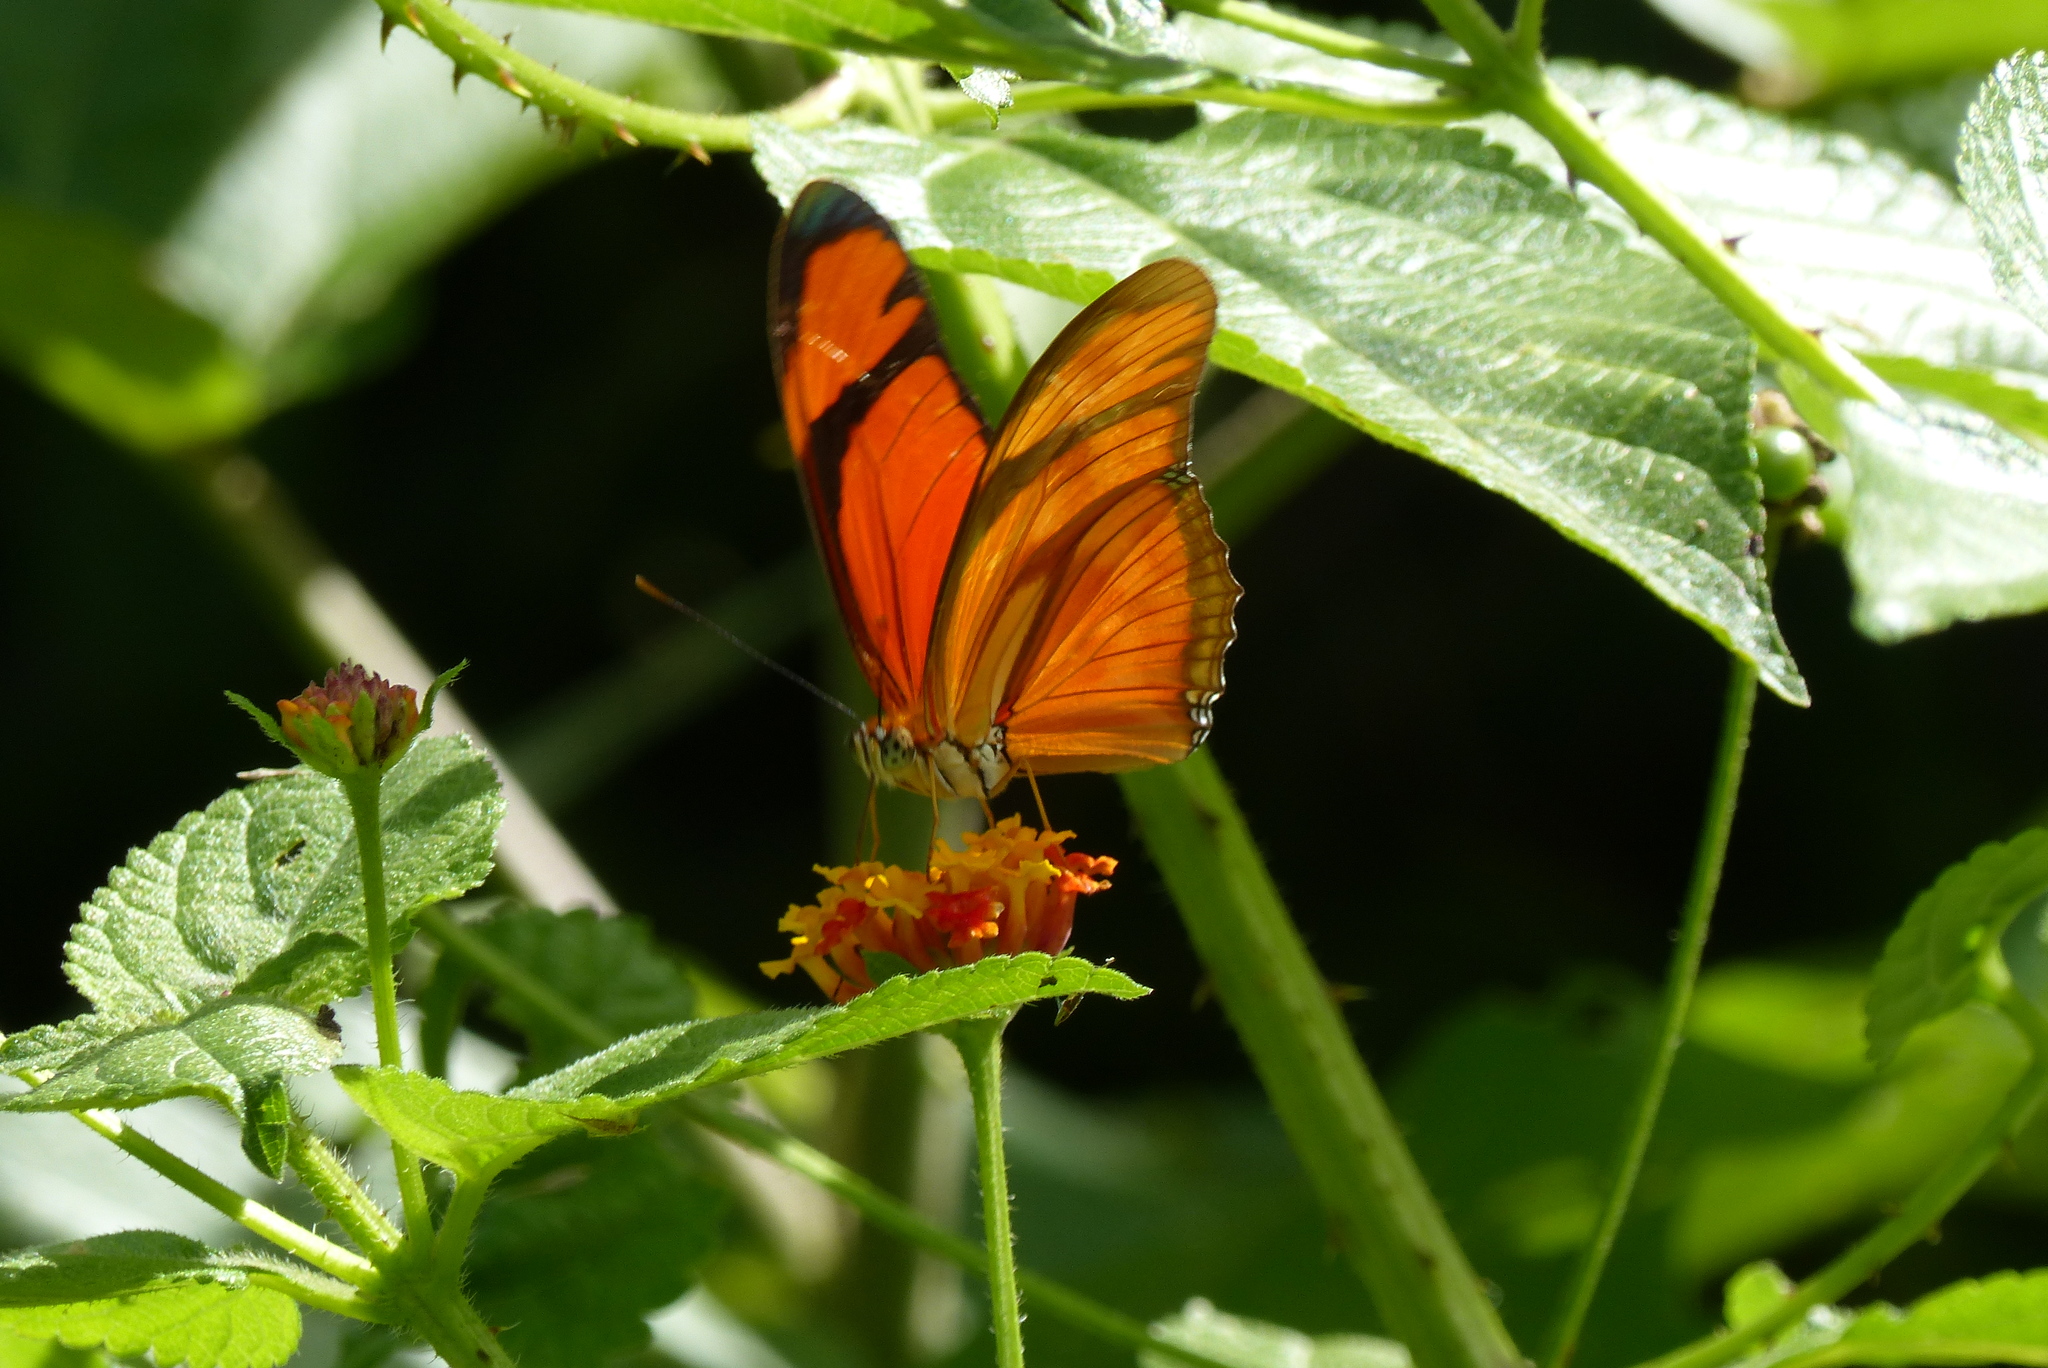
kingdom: Animalia
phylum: Arthropoda
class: Insecta
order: Lepidoptera
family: Nymphalidae
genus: Dryas
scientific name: Dryas iulia
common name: Flambeau
